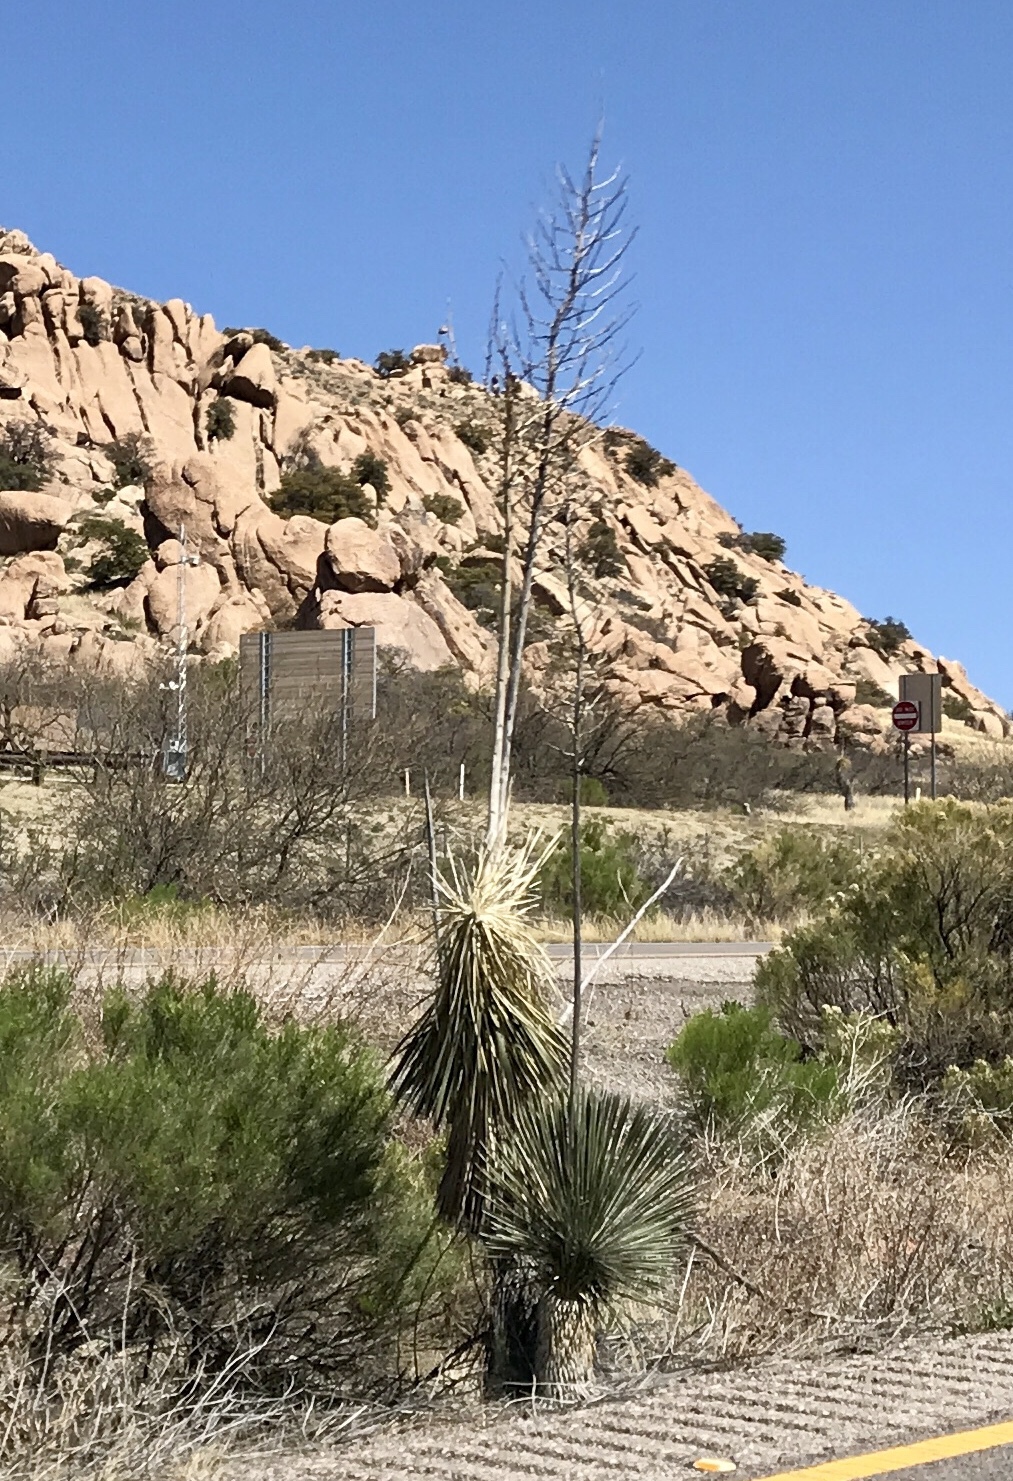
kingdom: Plantae
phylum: Tracheophyta
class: Liliopsida
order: Asparagales
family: Asparagaceae
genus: Yucca
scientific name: Yucca elata
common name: Palmella
